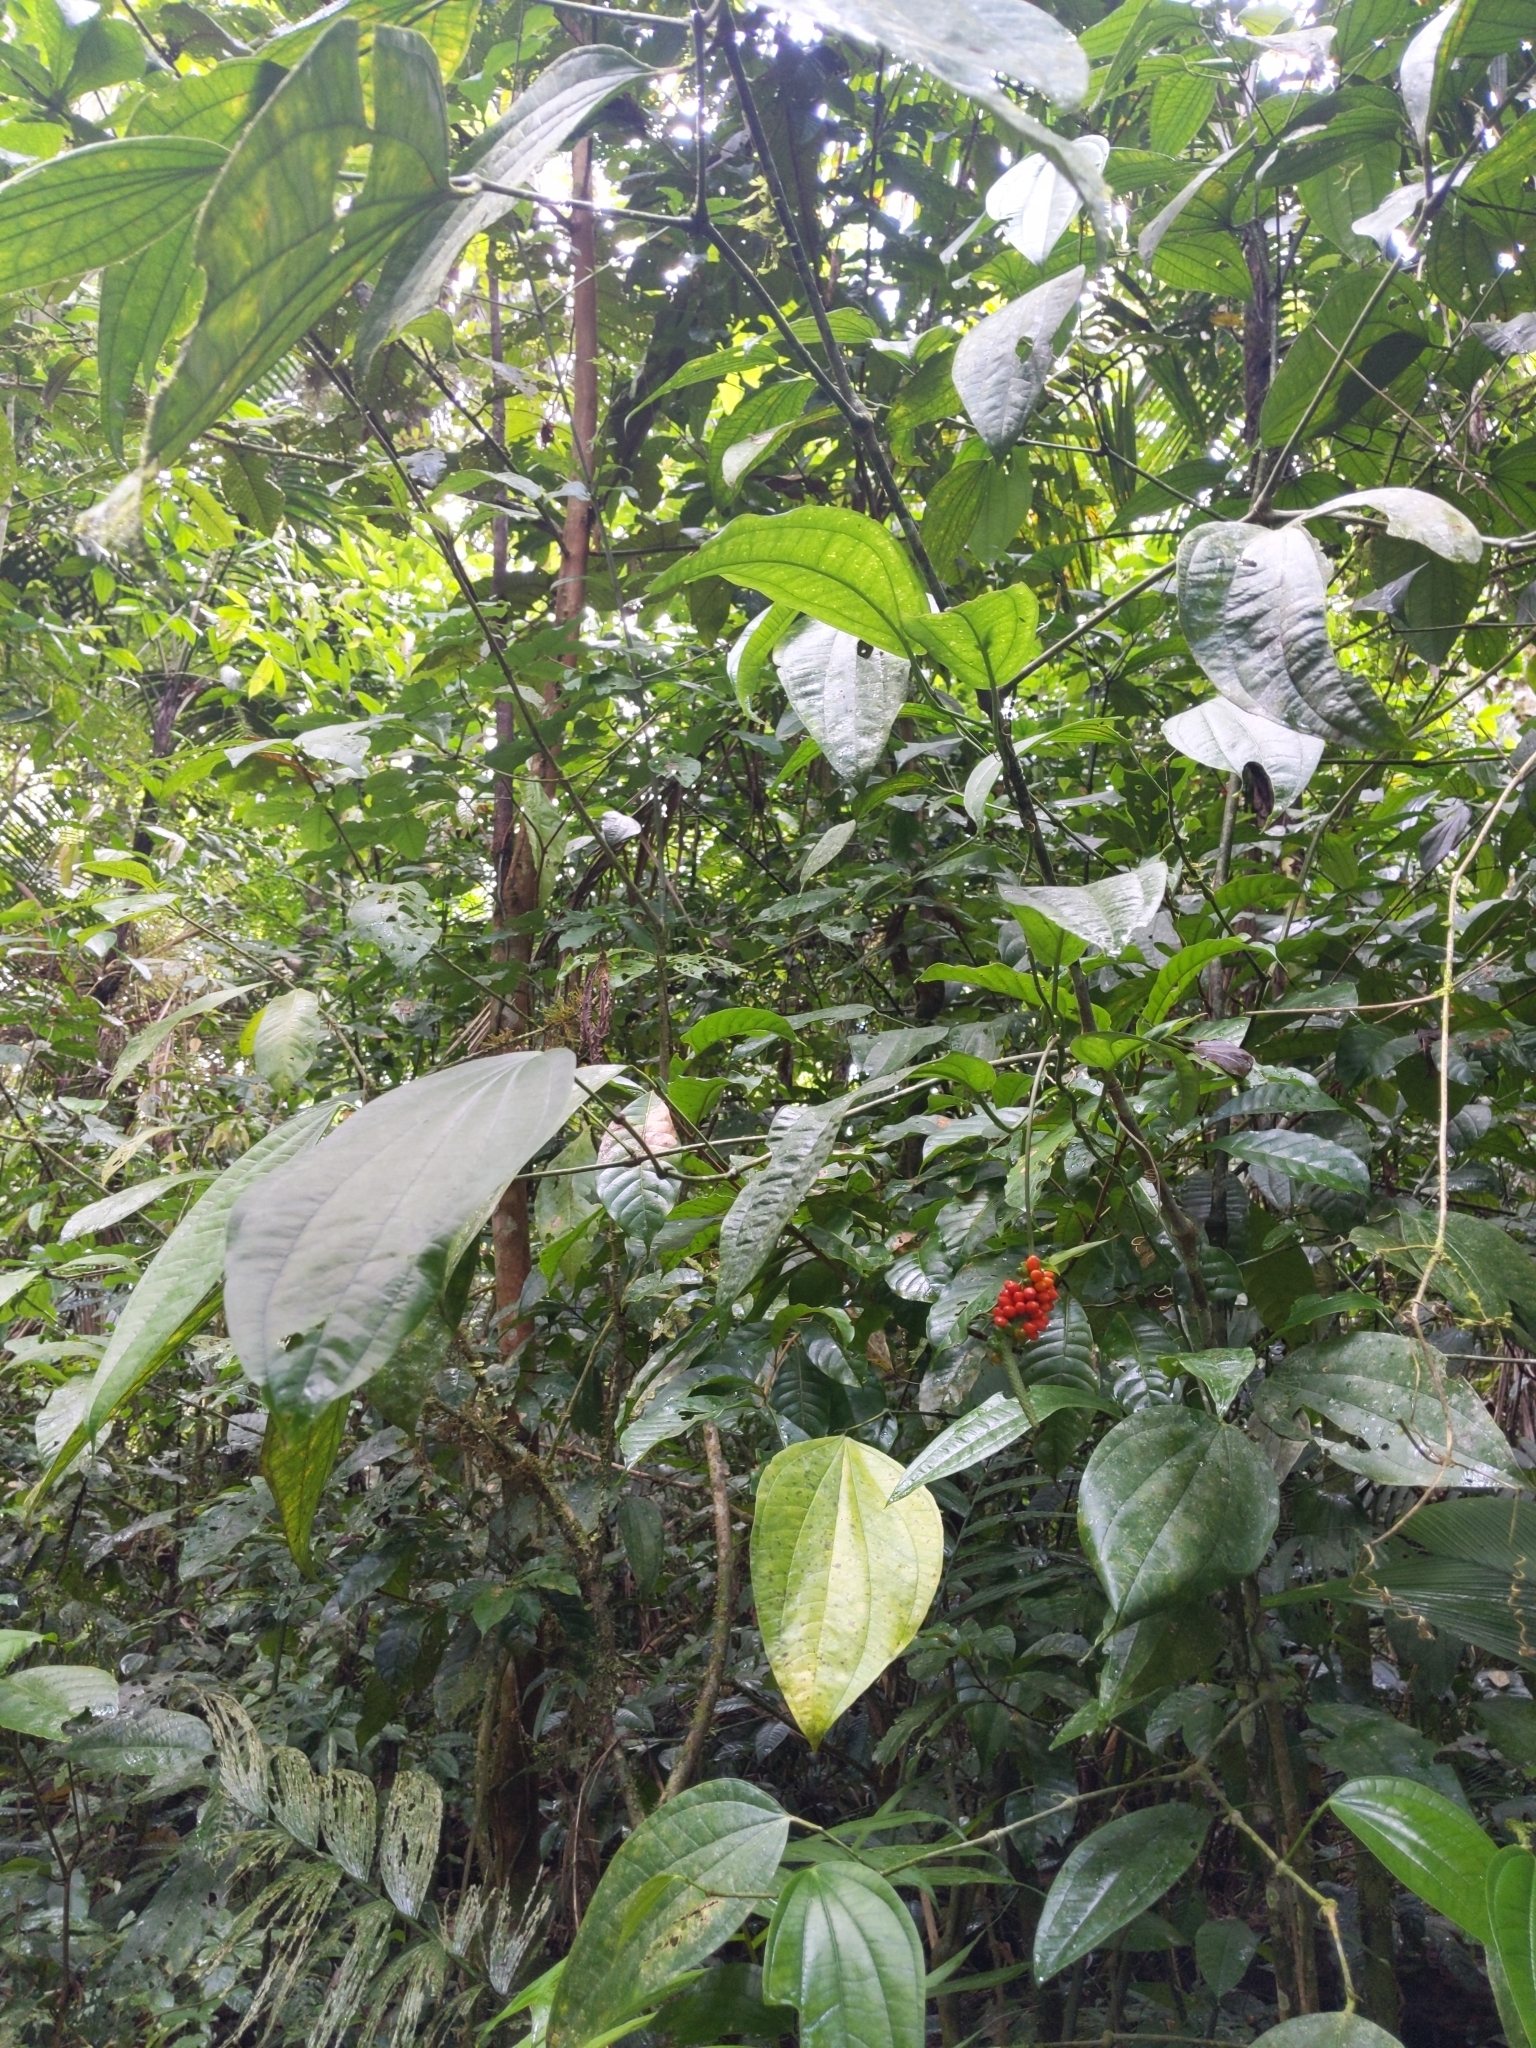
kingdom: Plantae
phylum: Tracheophyta
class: Liliopsida
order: Alismatales
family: Araceae
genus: Anthurium
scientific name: Anthurium flexile
